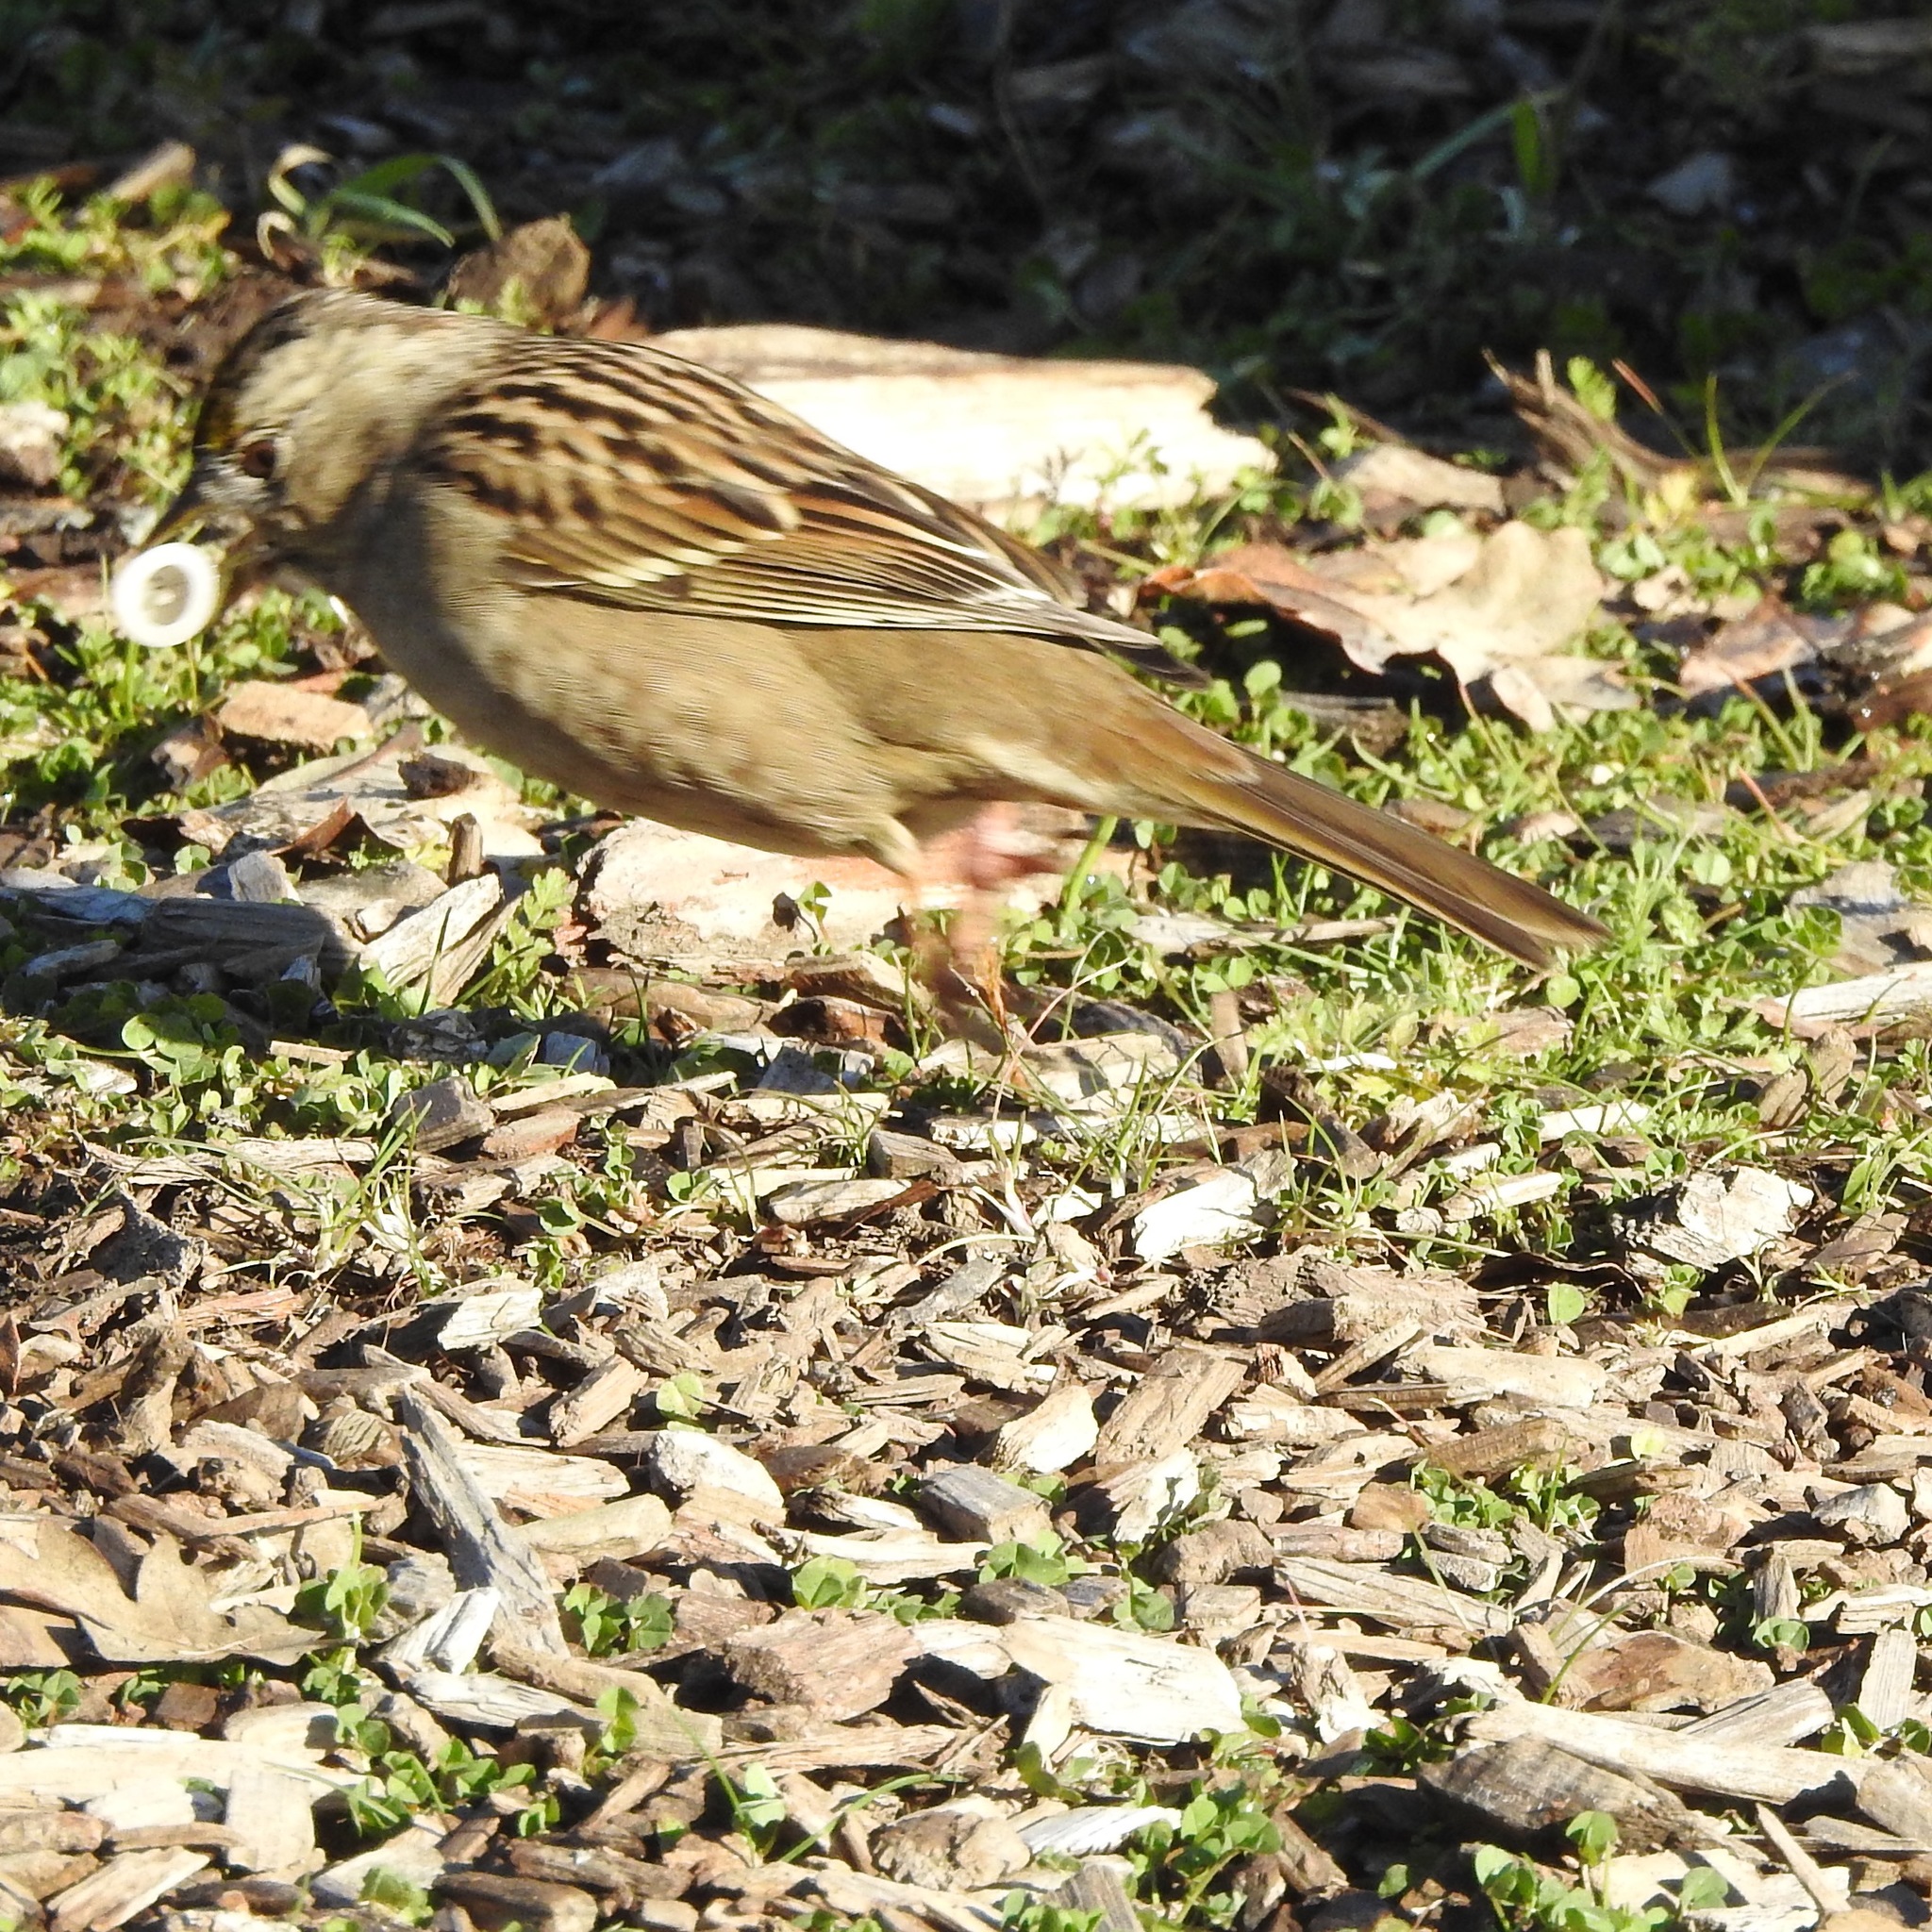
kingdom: Animalia
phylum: Chordata
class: Aves
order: Passeriformes
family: Passerellidae
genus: Zonotrichia
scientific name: Zonotrichia atricapilla
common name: Golden-crowned sparrow
